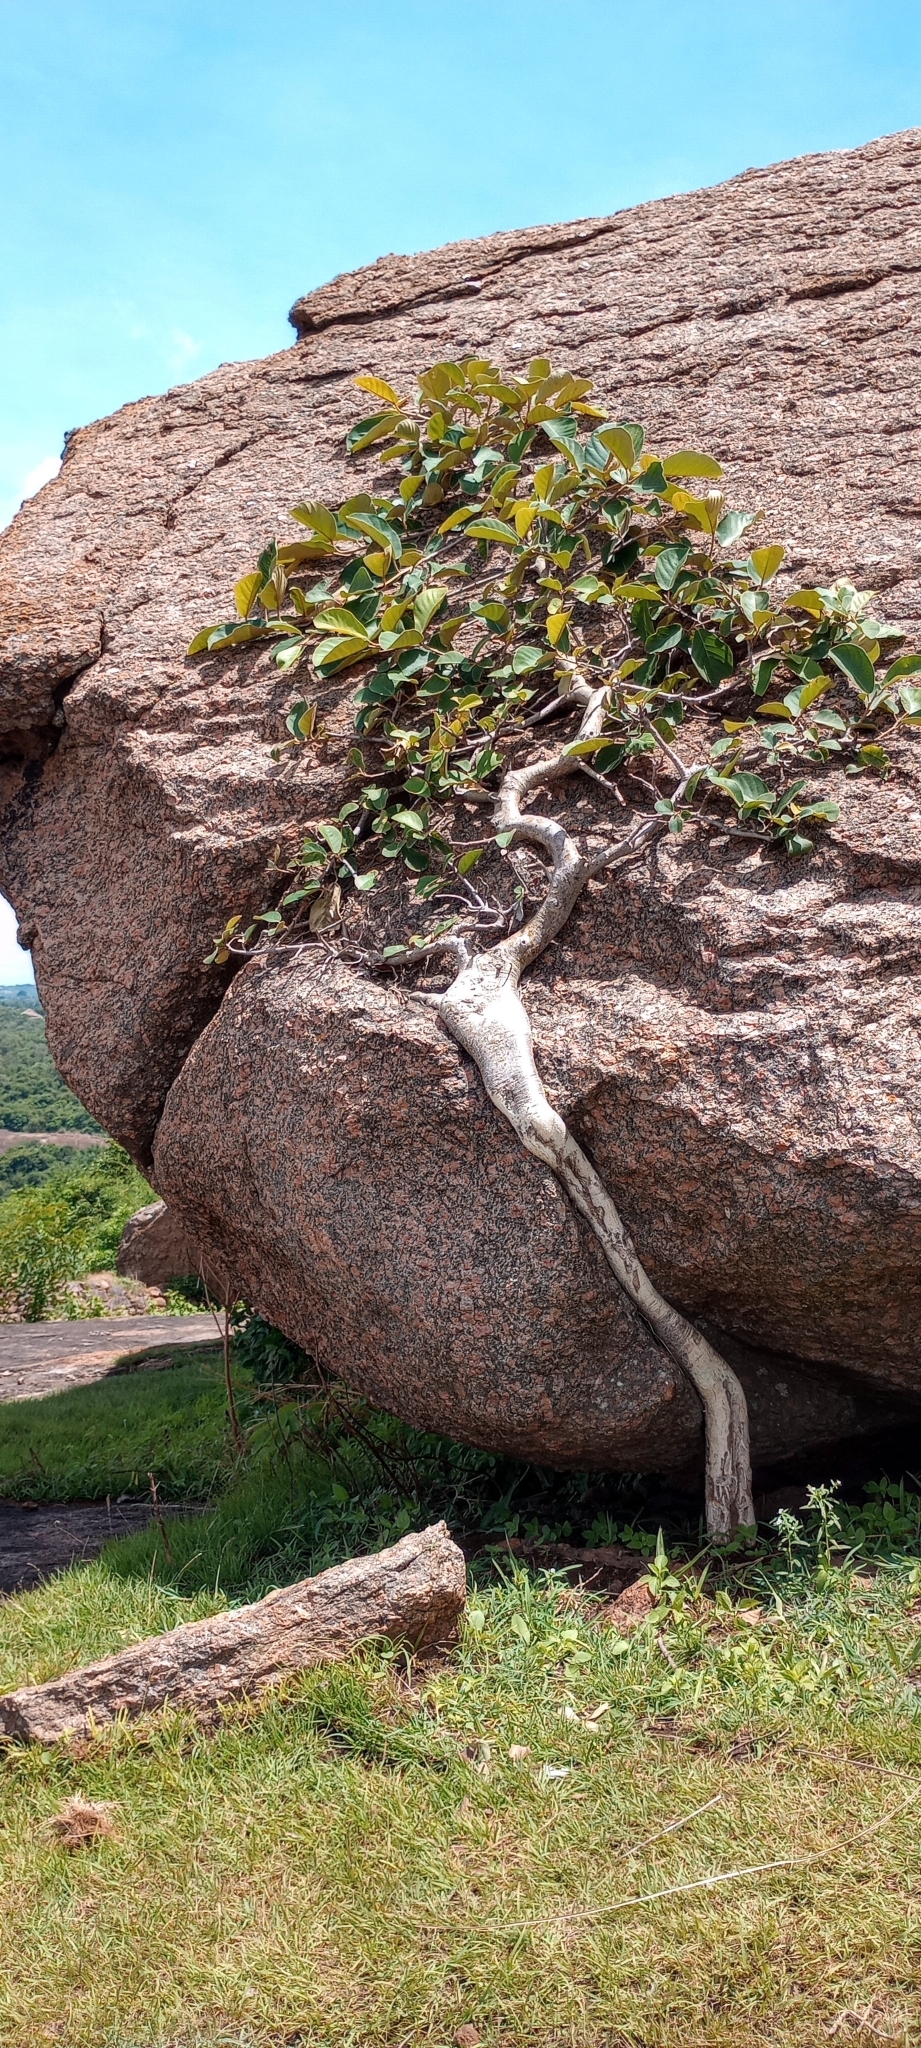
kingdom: Plantae
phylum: Tracheophyta
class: Magnoliopsida
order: Rosales
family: Moraceae
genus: Ficus
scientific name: Ficus mollis
